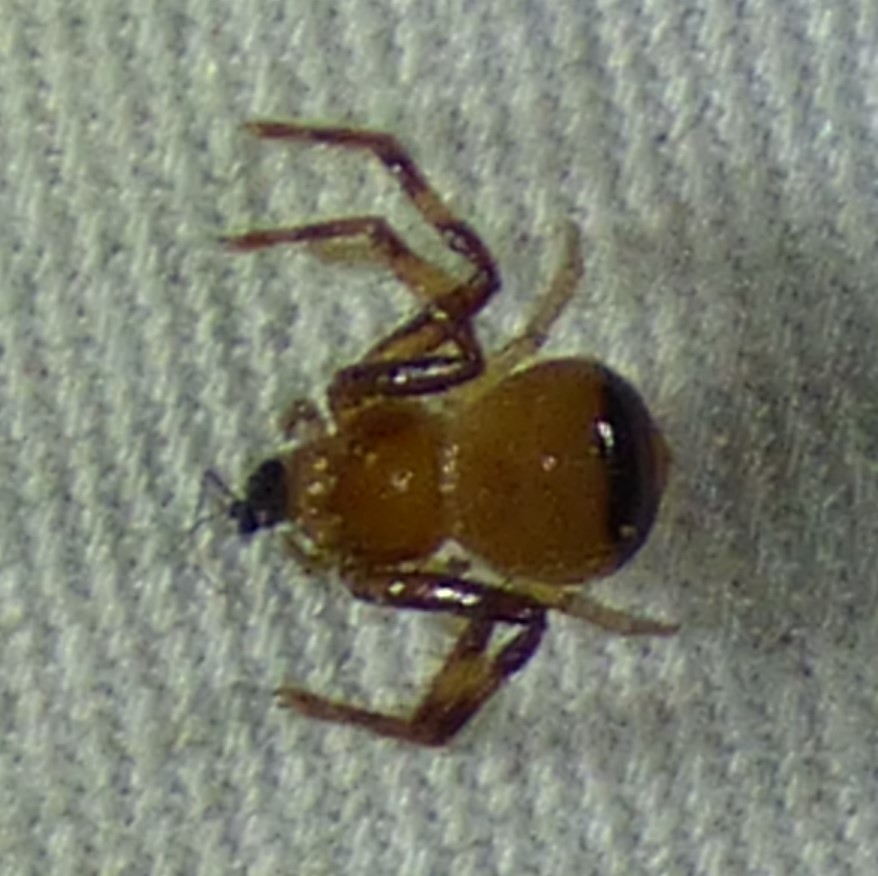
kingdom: Animalia
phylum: Arthropoda
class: Arachnida
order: Araneae
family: Thomisidae
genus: Synema
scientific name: Synema parvulum
